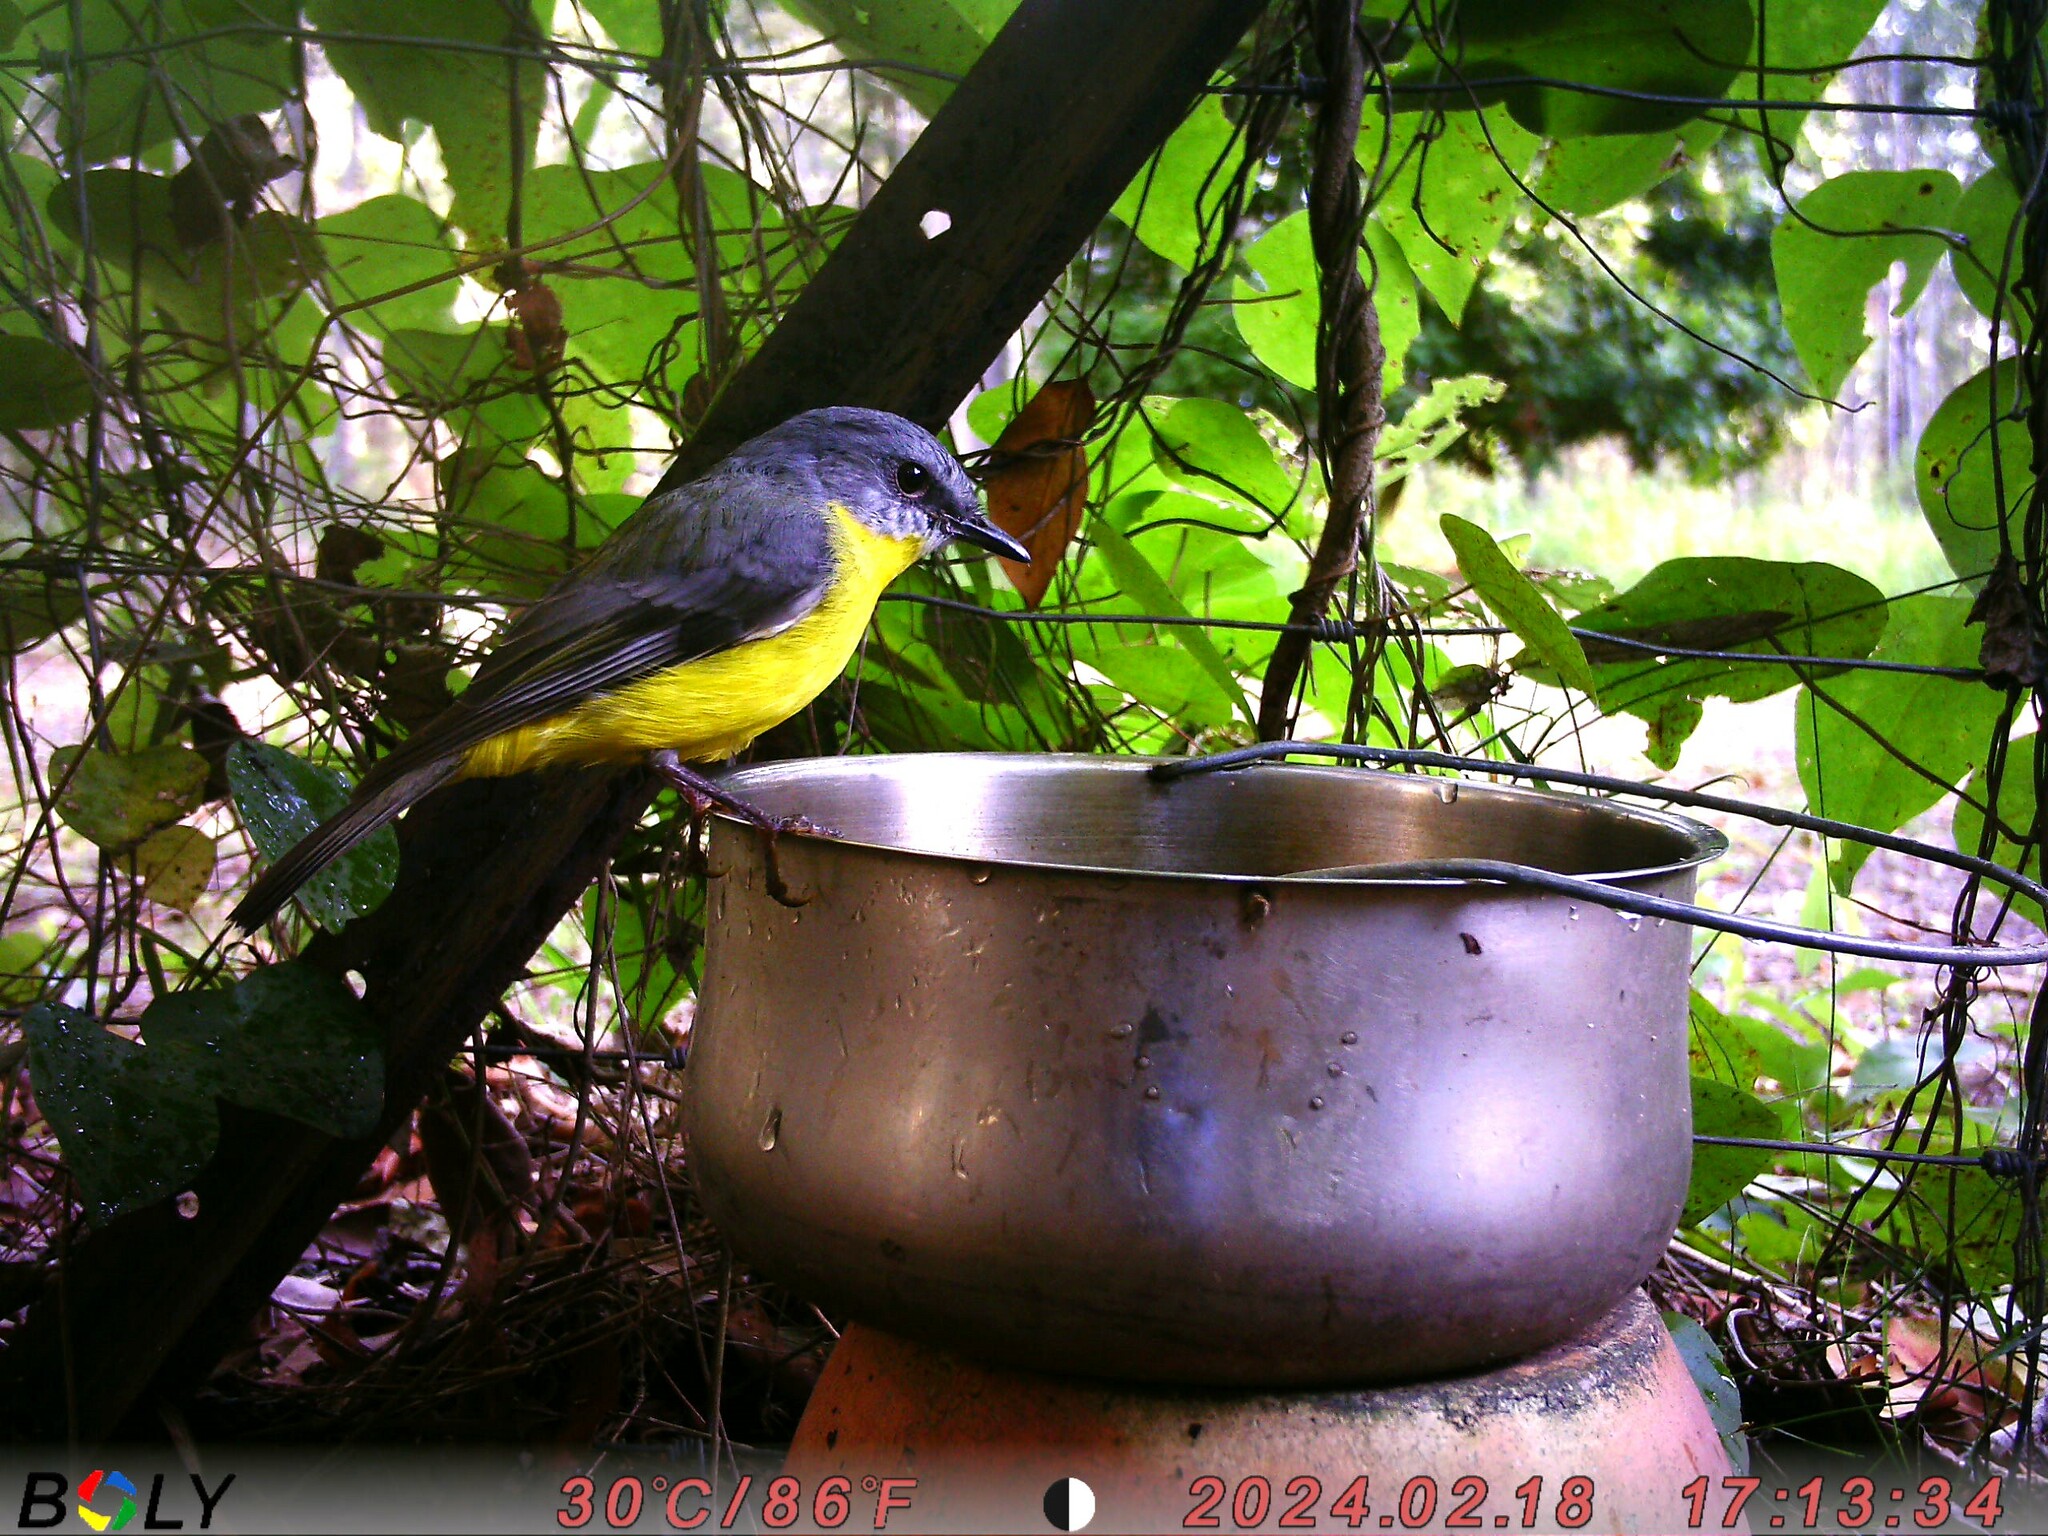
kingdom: Animalia
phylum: Chordata
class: Aves
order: Passeriformes
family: Petroicidae
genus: Eopsaltria
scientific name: Eopsaltria australis
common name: Eastern yellow robin
